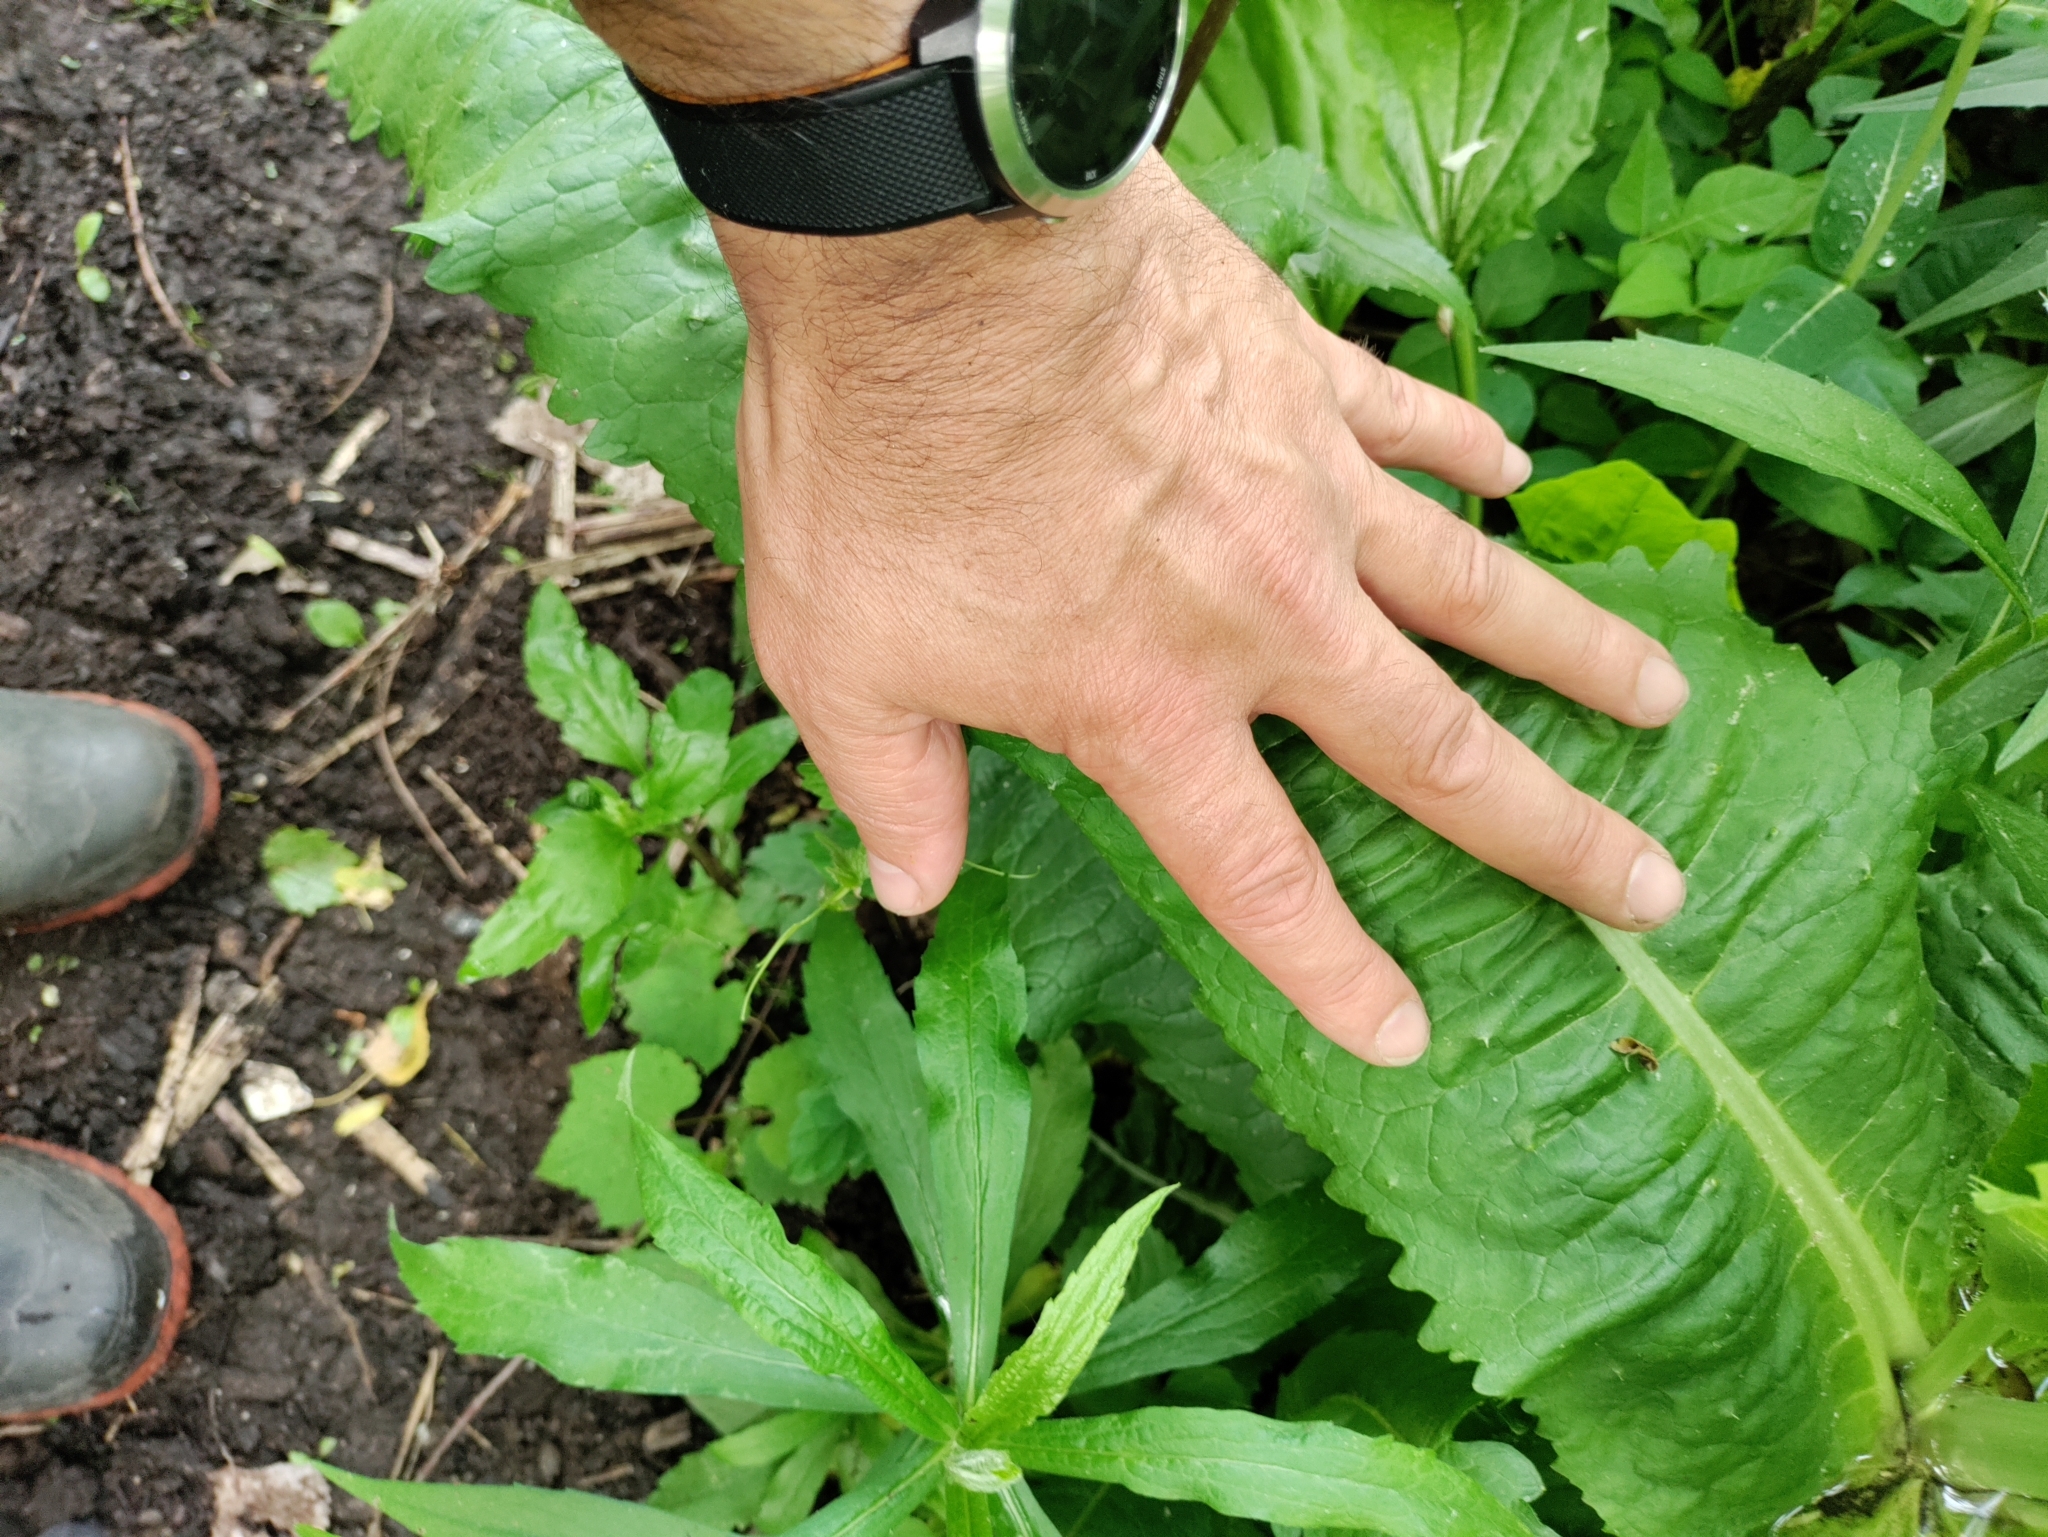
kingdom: Plantae
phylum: Tracheophyta
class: Magnoliopsida
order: Dipsacales
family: Caprifoliaceae
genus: Dipsacus
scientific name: Dipsacus fullonum
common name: Teasel
